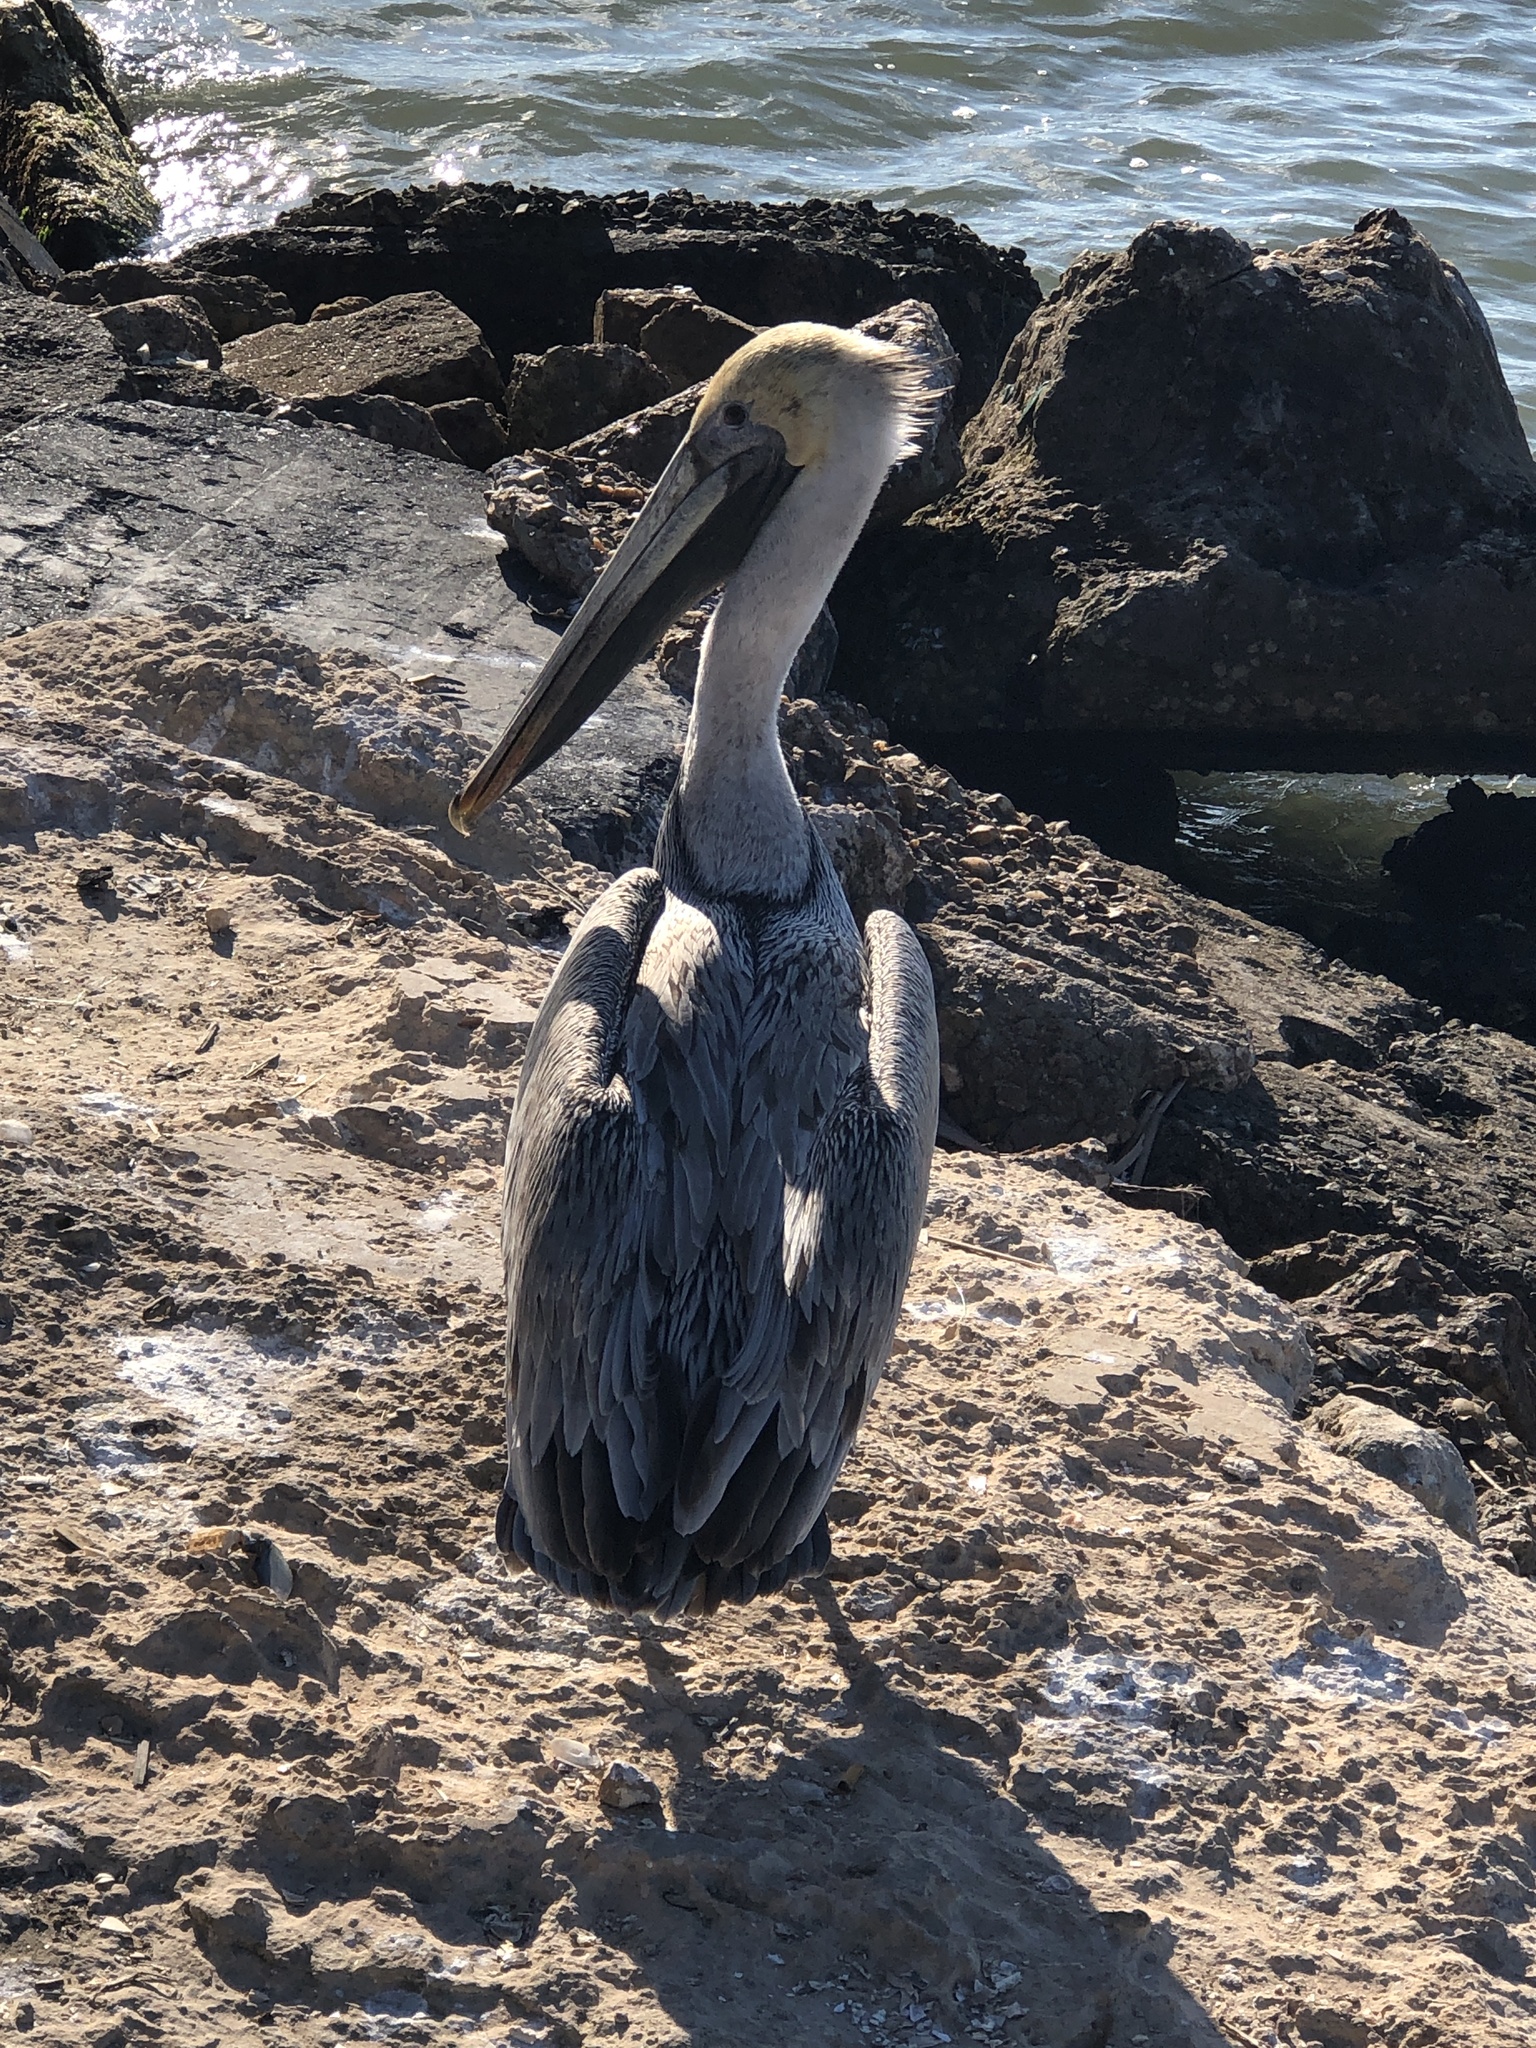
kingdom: Animalia
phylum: Chordata
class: Aves
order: Pelecaniformes
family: Pelecanidae
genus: Pelecanus
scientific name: Pelecanus occidentalis
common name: Brown pelican
